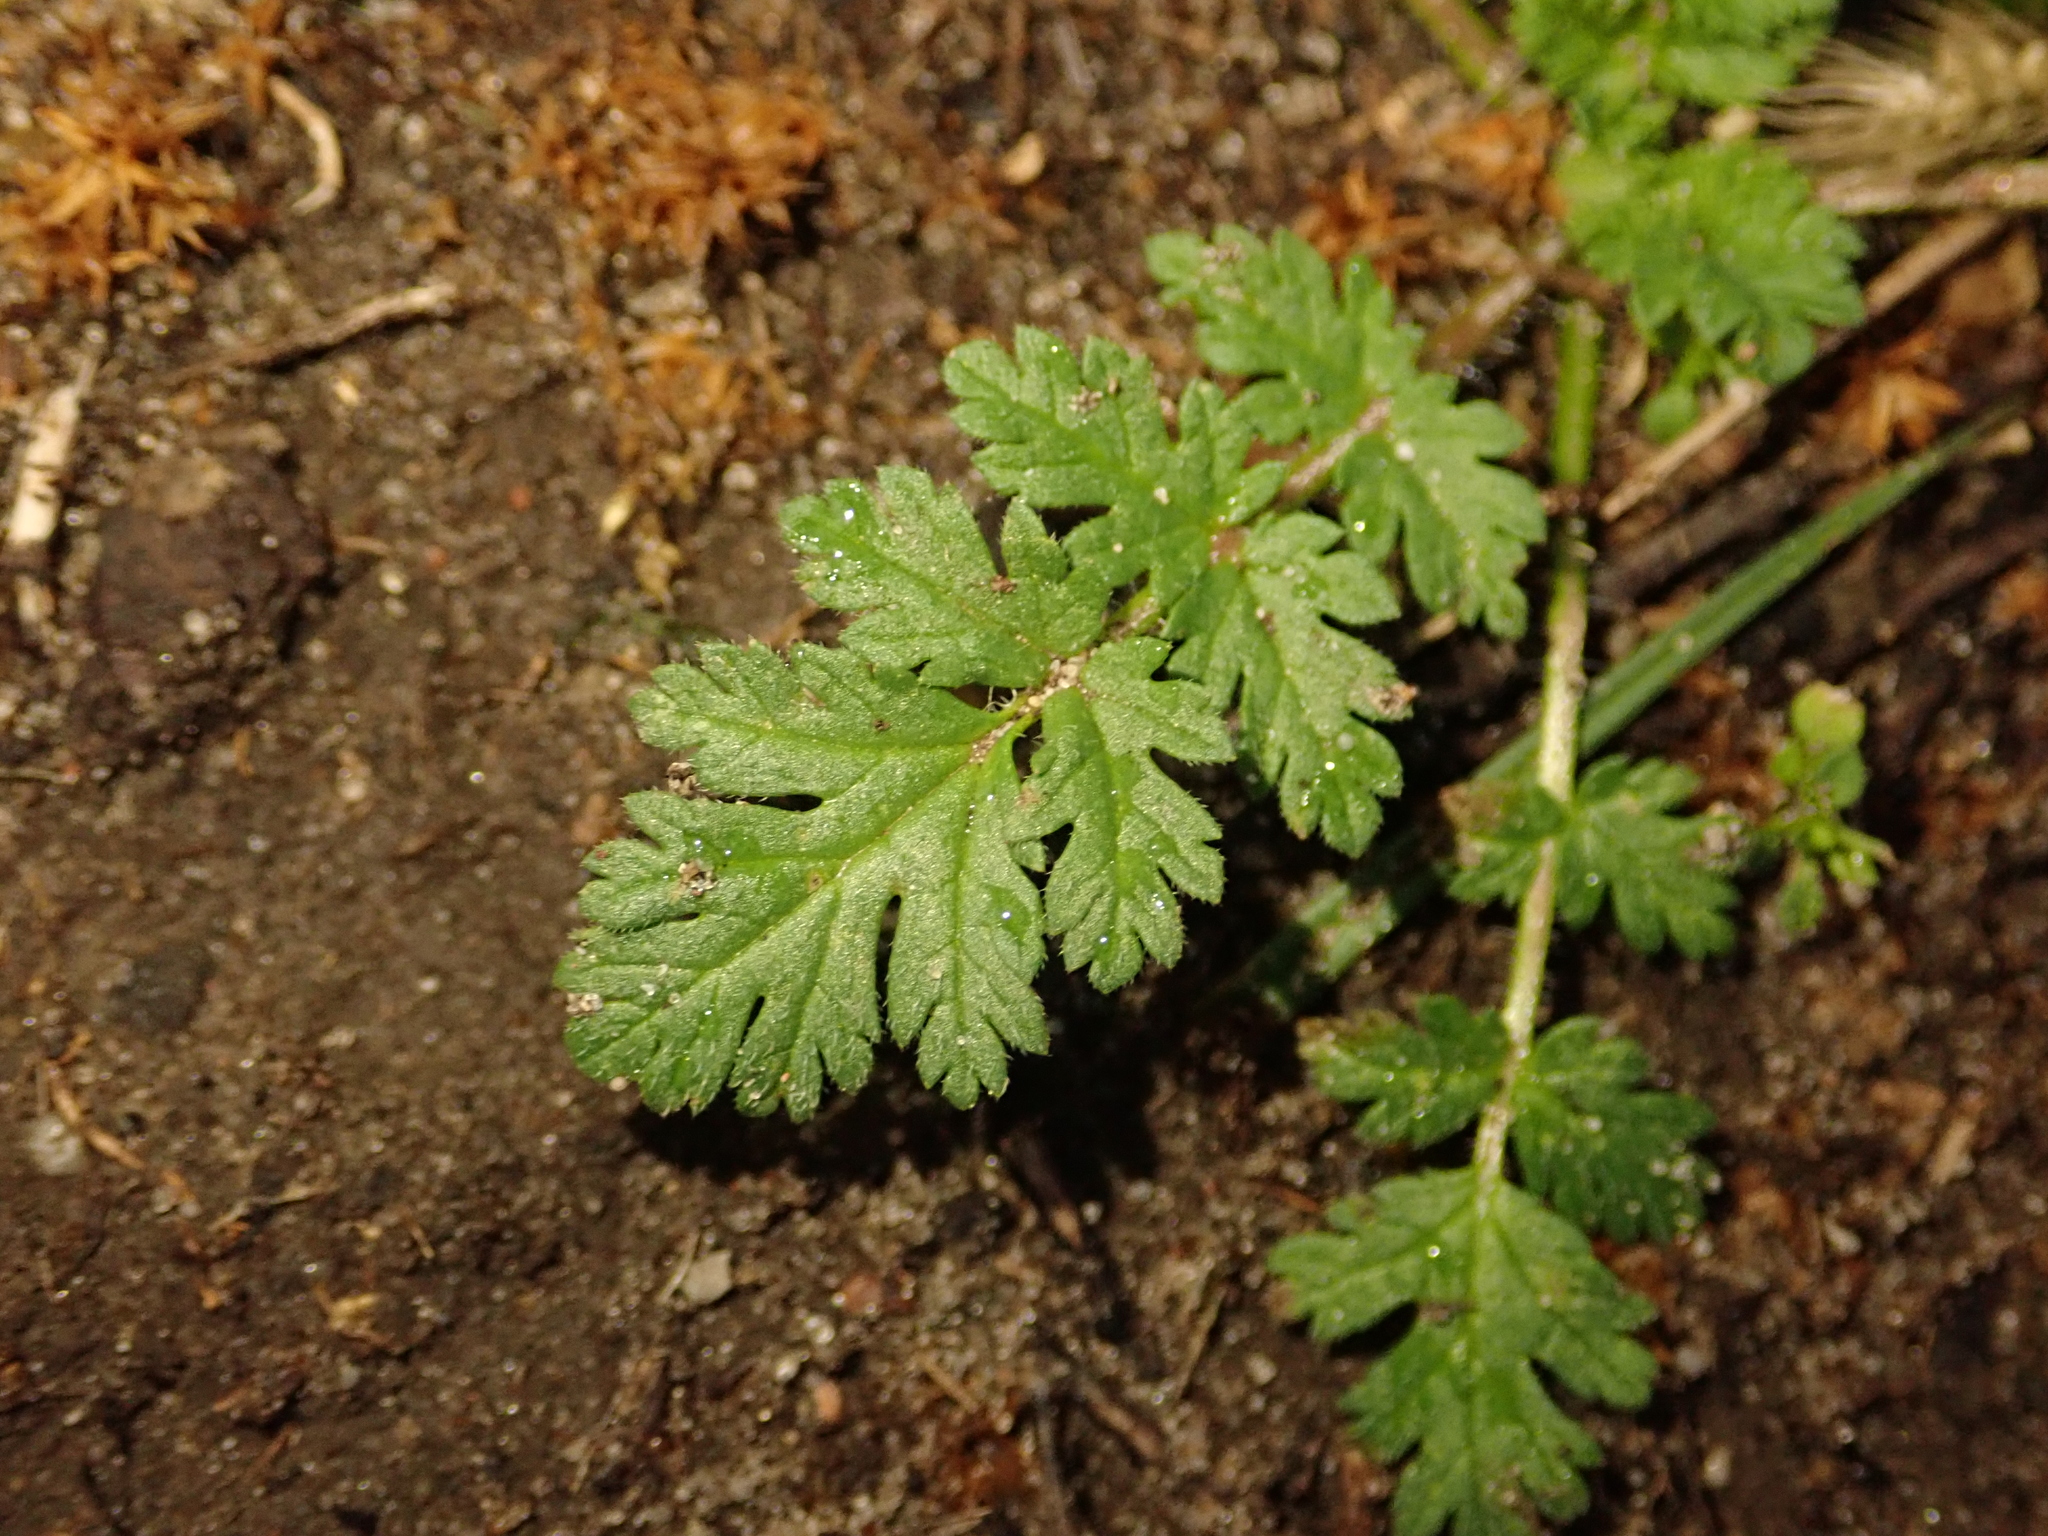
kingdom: Plantae
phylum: Tracheophyta
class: Magnoliopsida
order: Geraniales
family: Geraniaceae
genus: Erodium
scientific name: Erodium cicutarium
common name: Common stork's-bill
